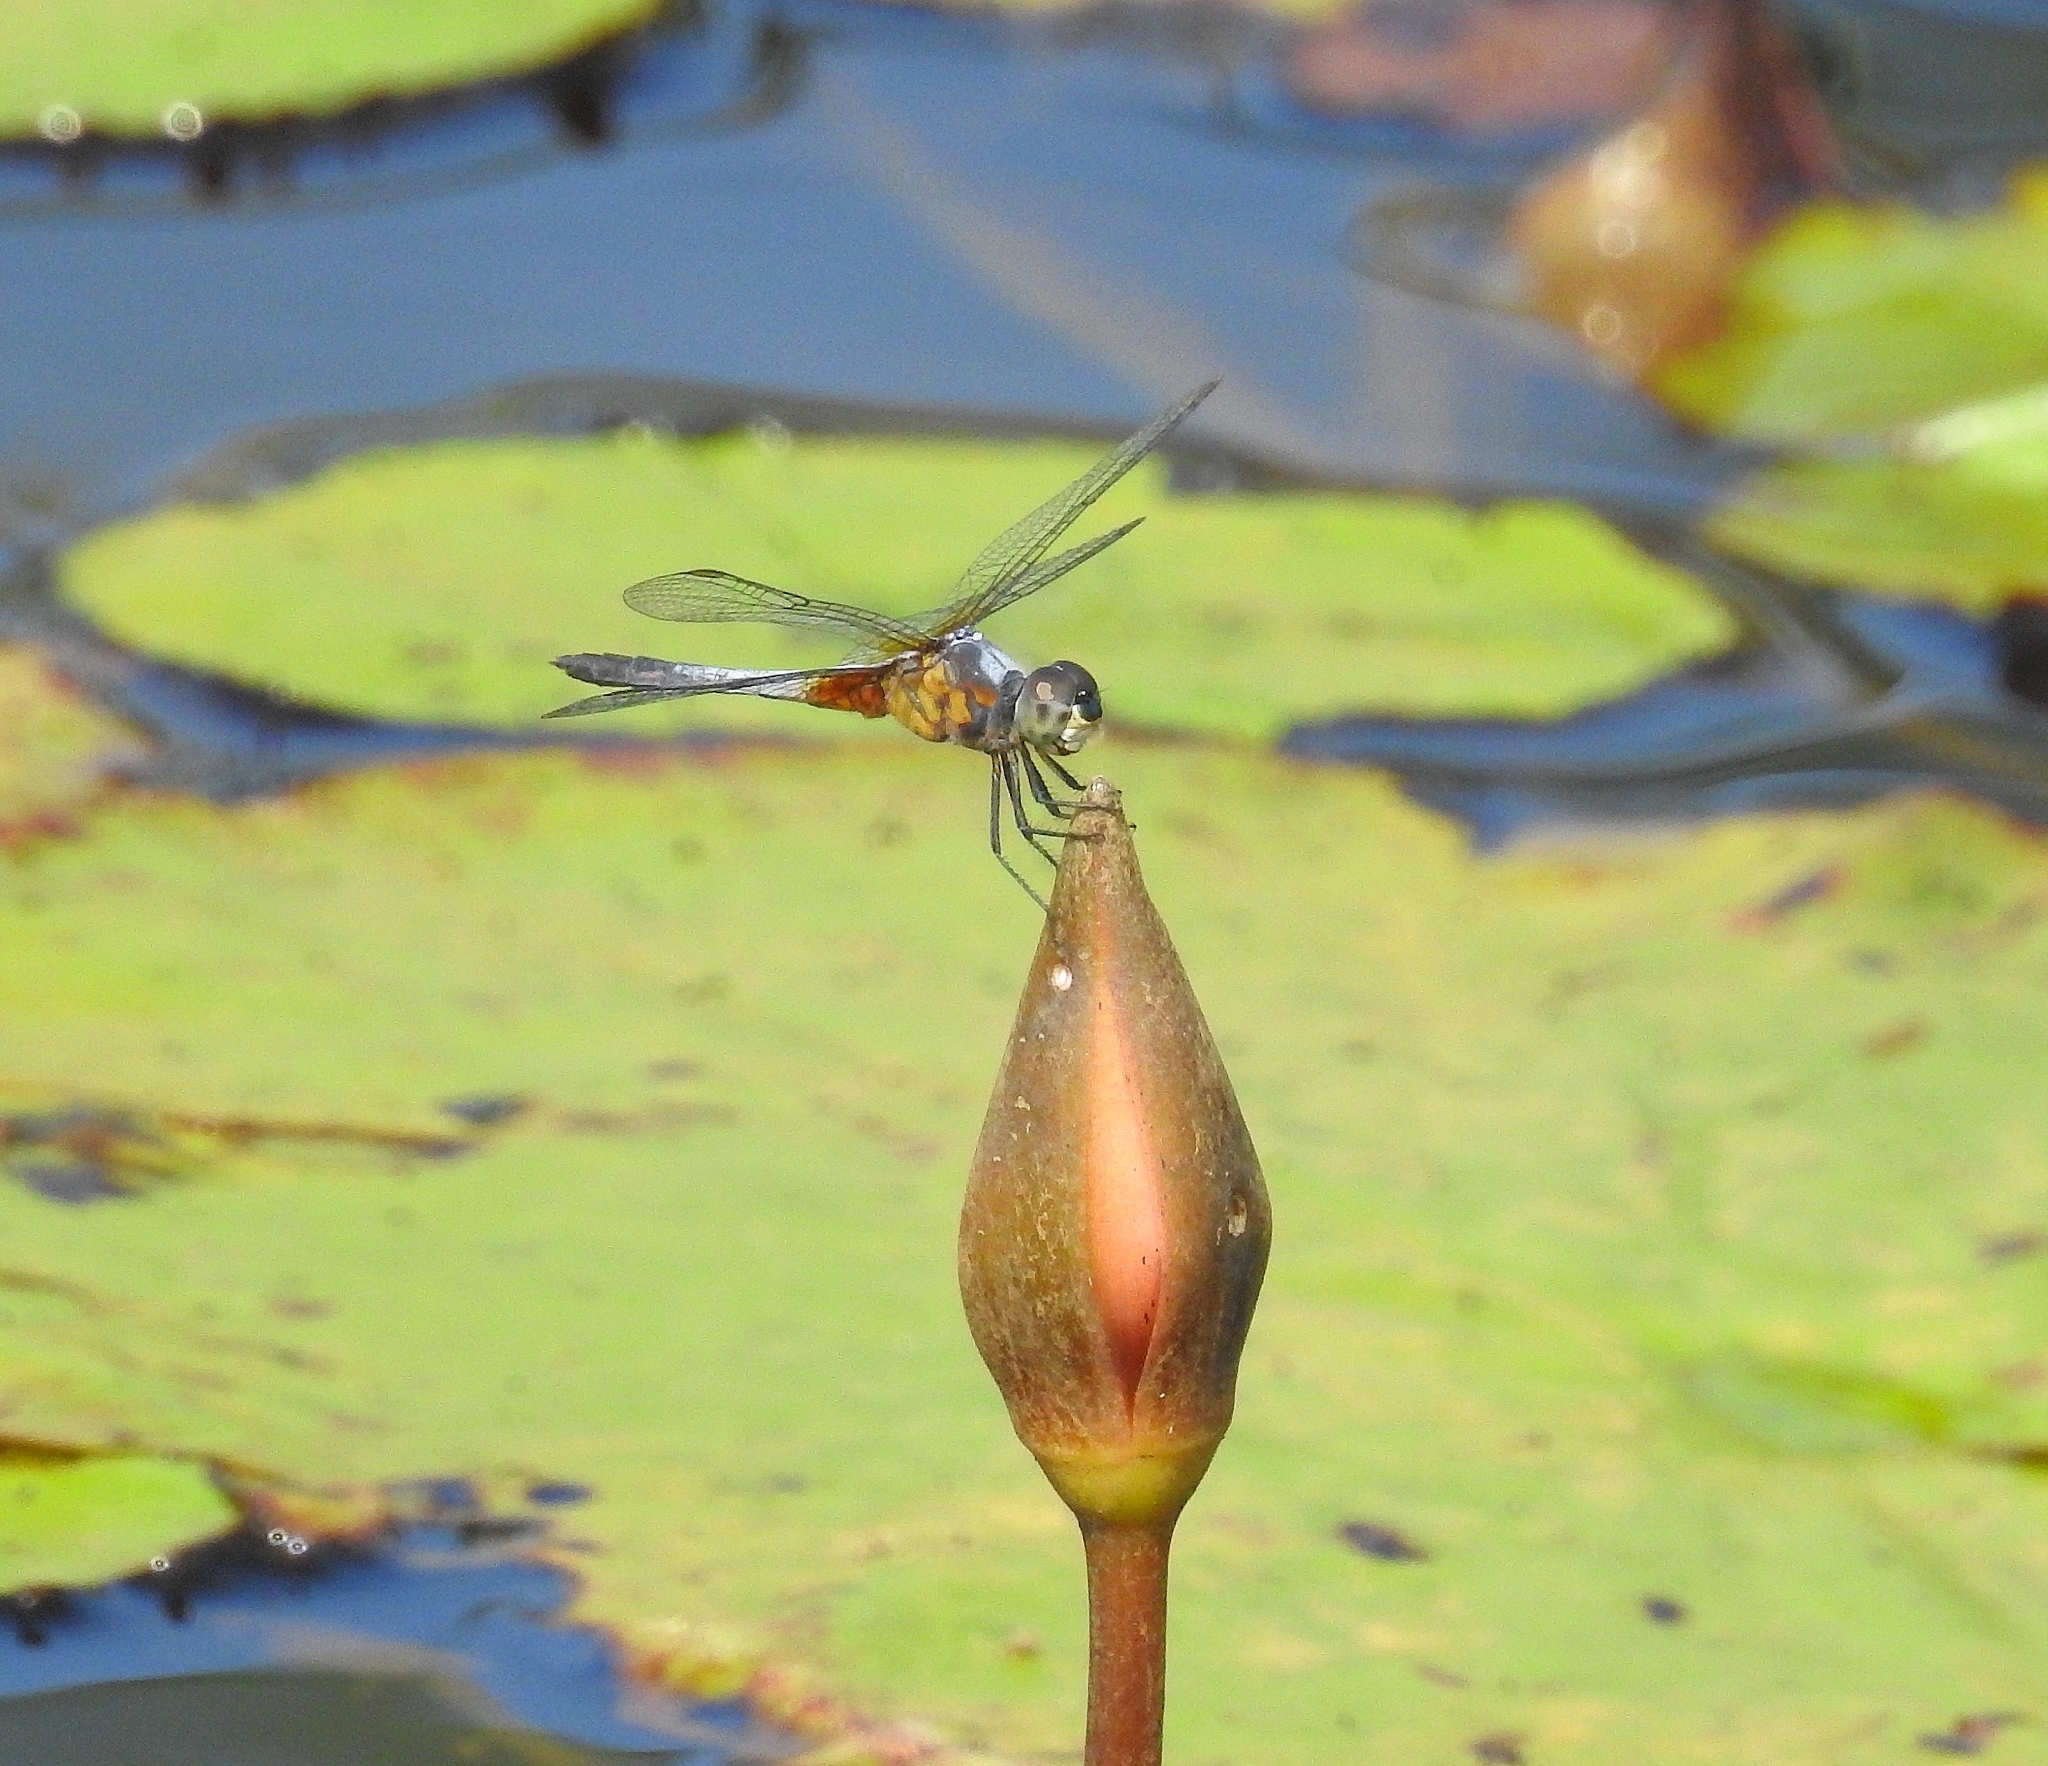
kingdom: Animalia
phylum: Arthropoda
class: Insecta
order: Odonata
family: Libellulidae
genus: Brachydiplax
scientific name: Brachydiplax chalybea
